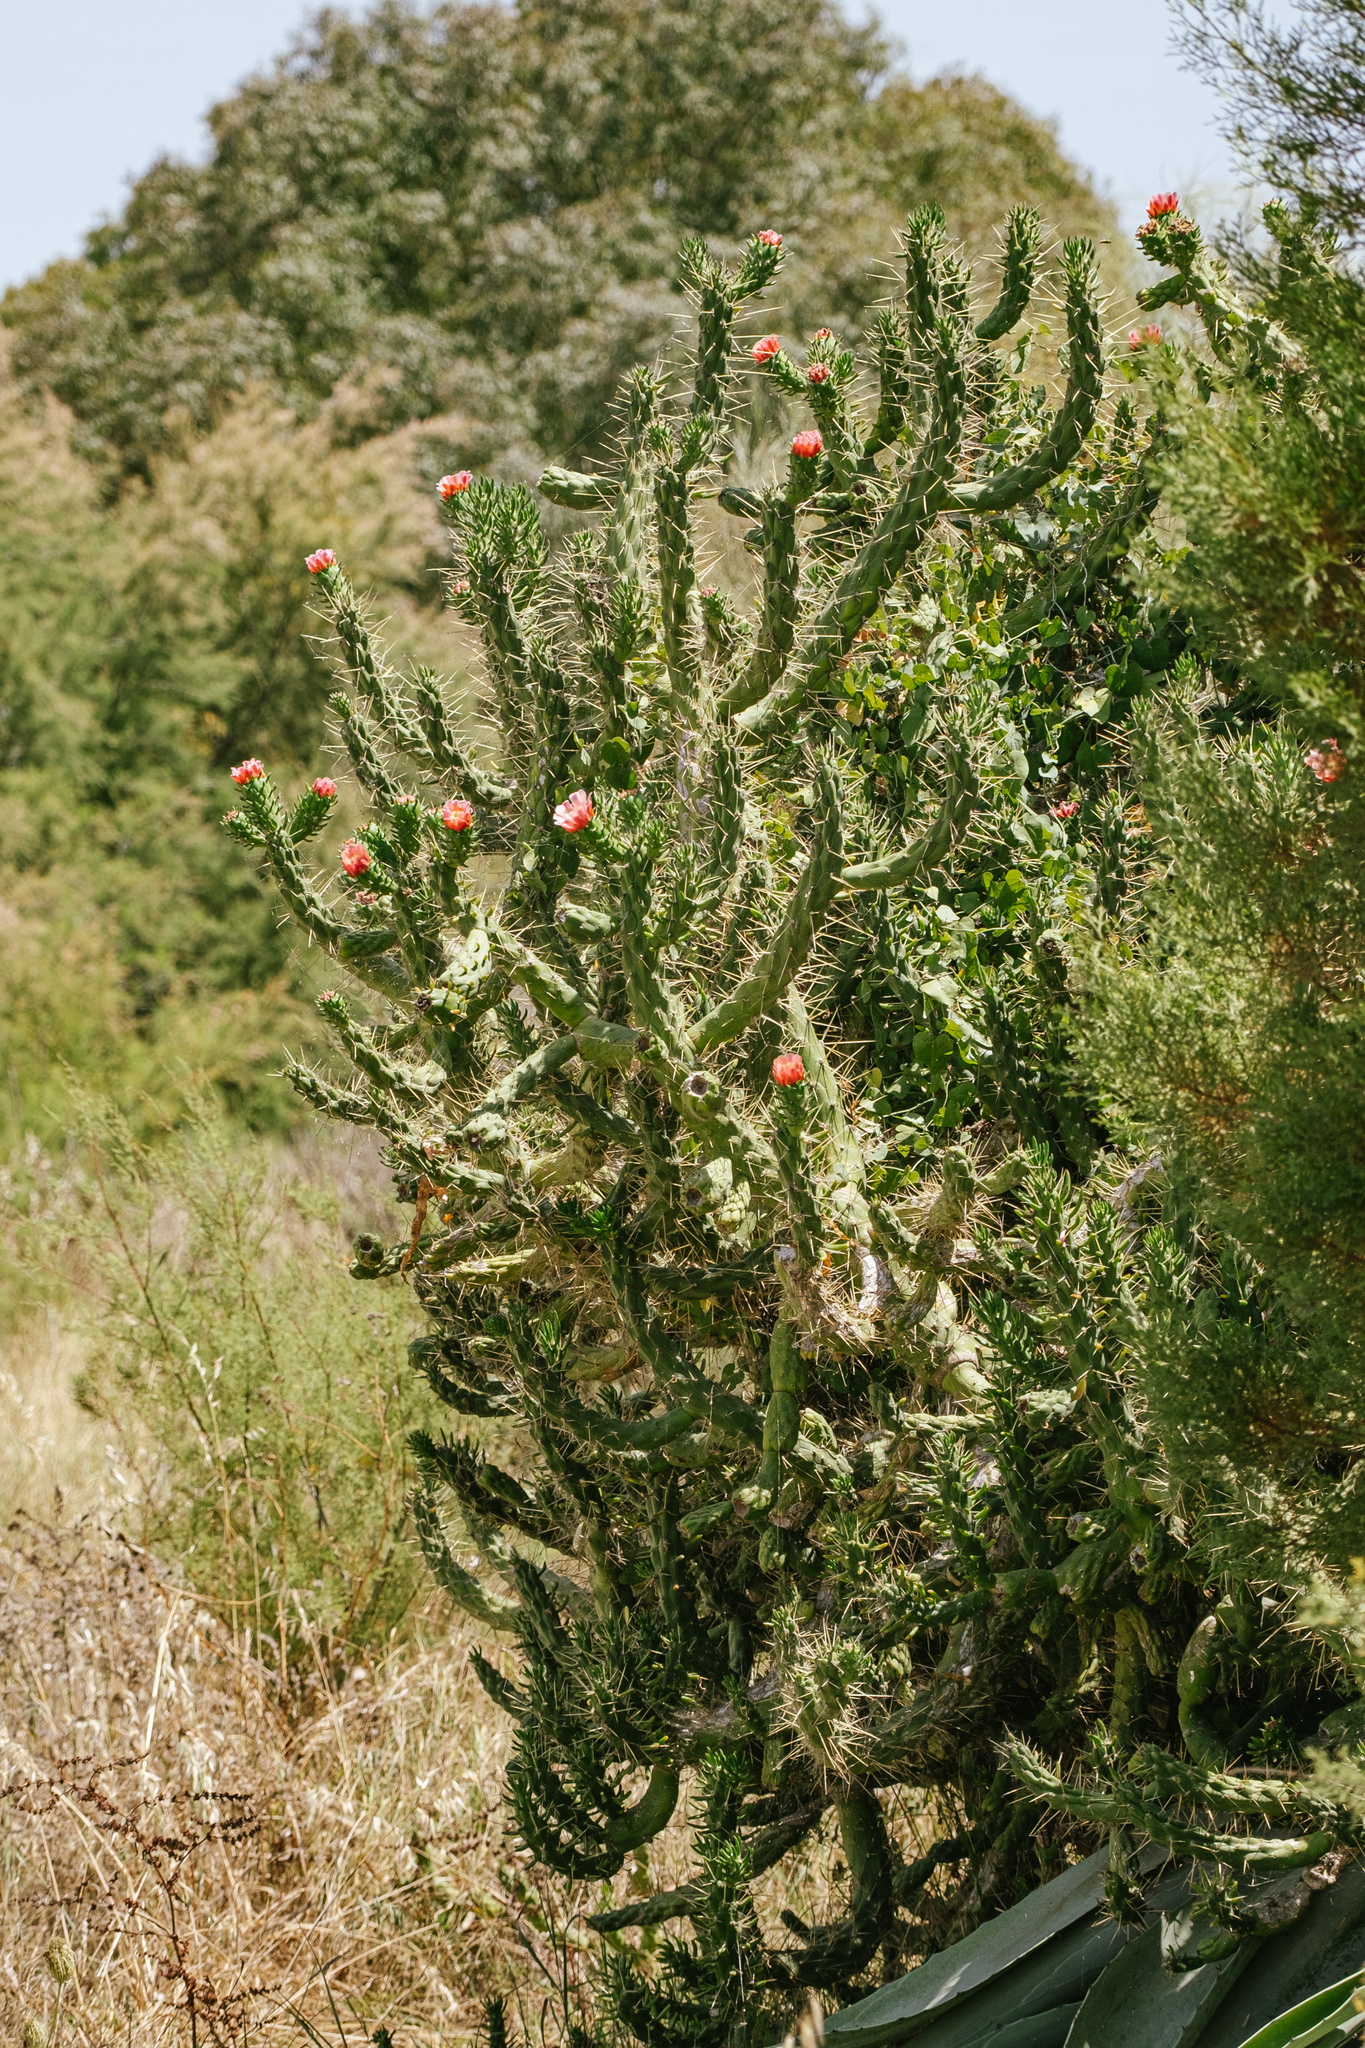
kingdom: Plantae
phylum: Tracheophyta
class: Magnoliopsida
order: Caryophyllales
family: Cactaceae
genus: Austrocylindropuntia
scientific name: Austrocylindropuntia subulata
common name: Eve's needle cactus
